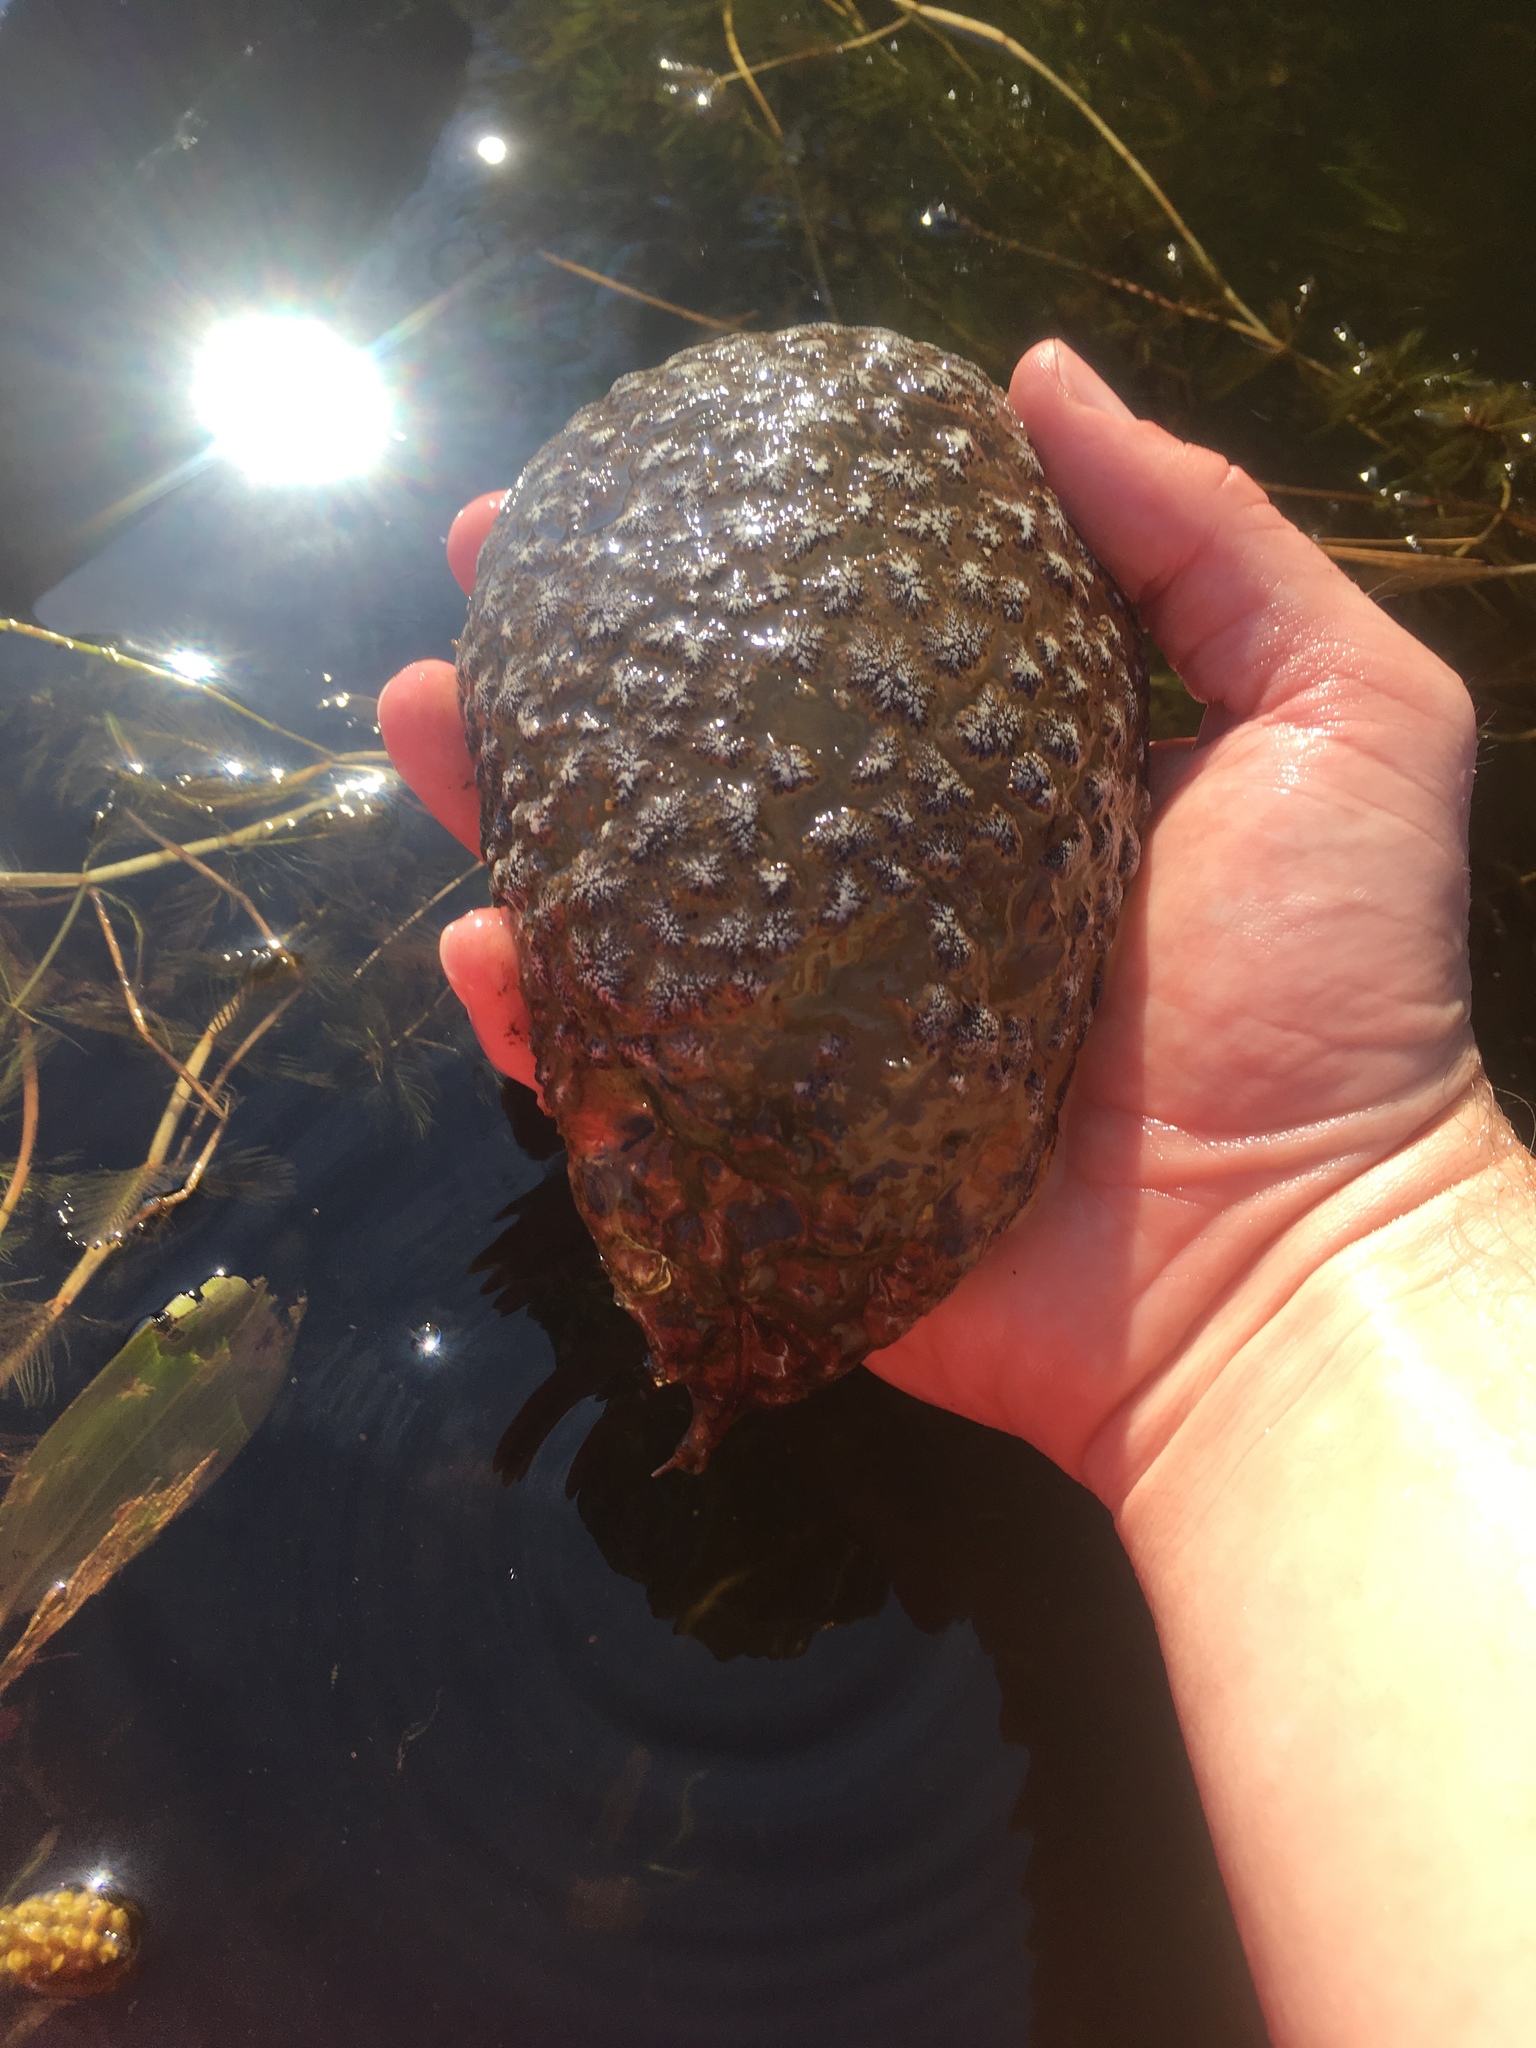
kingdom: Animalia
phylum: Bryozoa
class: Phylactolaemata
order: Plumatellida
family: Pectinatellidae
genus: Pectinatella
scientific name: Pectinatella magnifica
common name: Magnificent bryozoan
